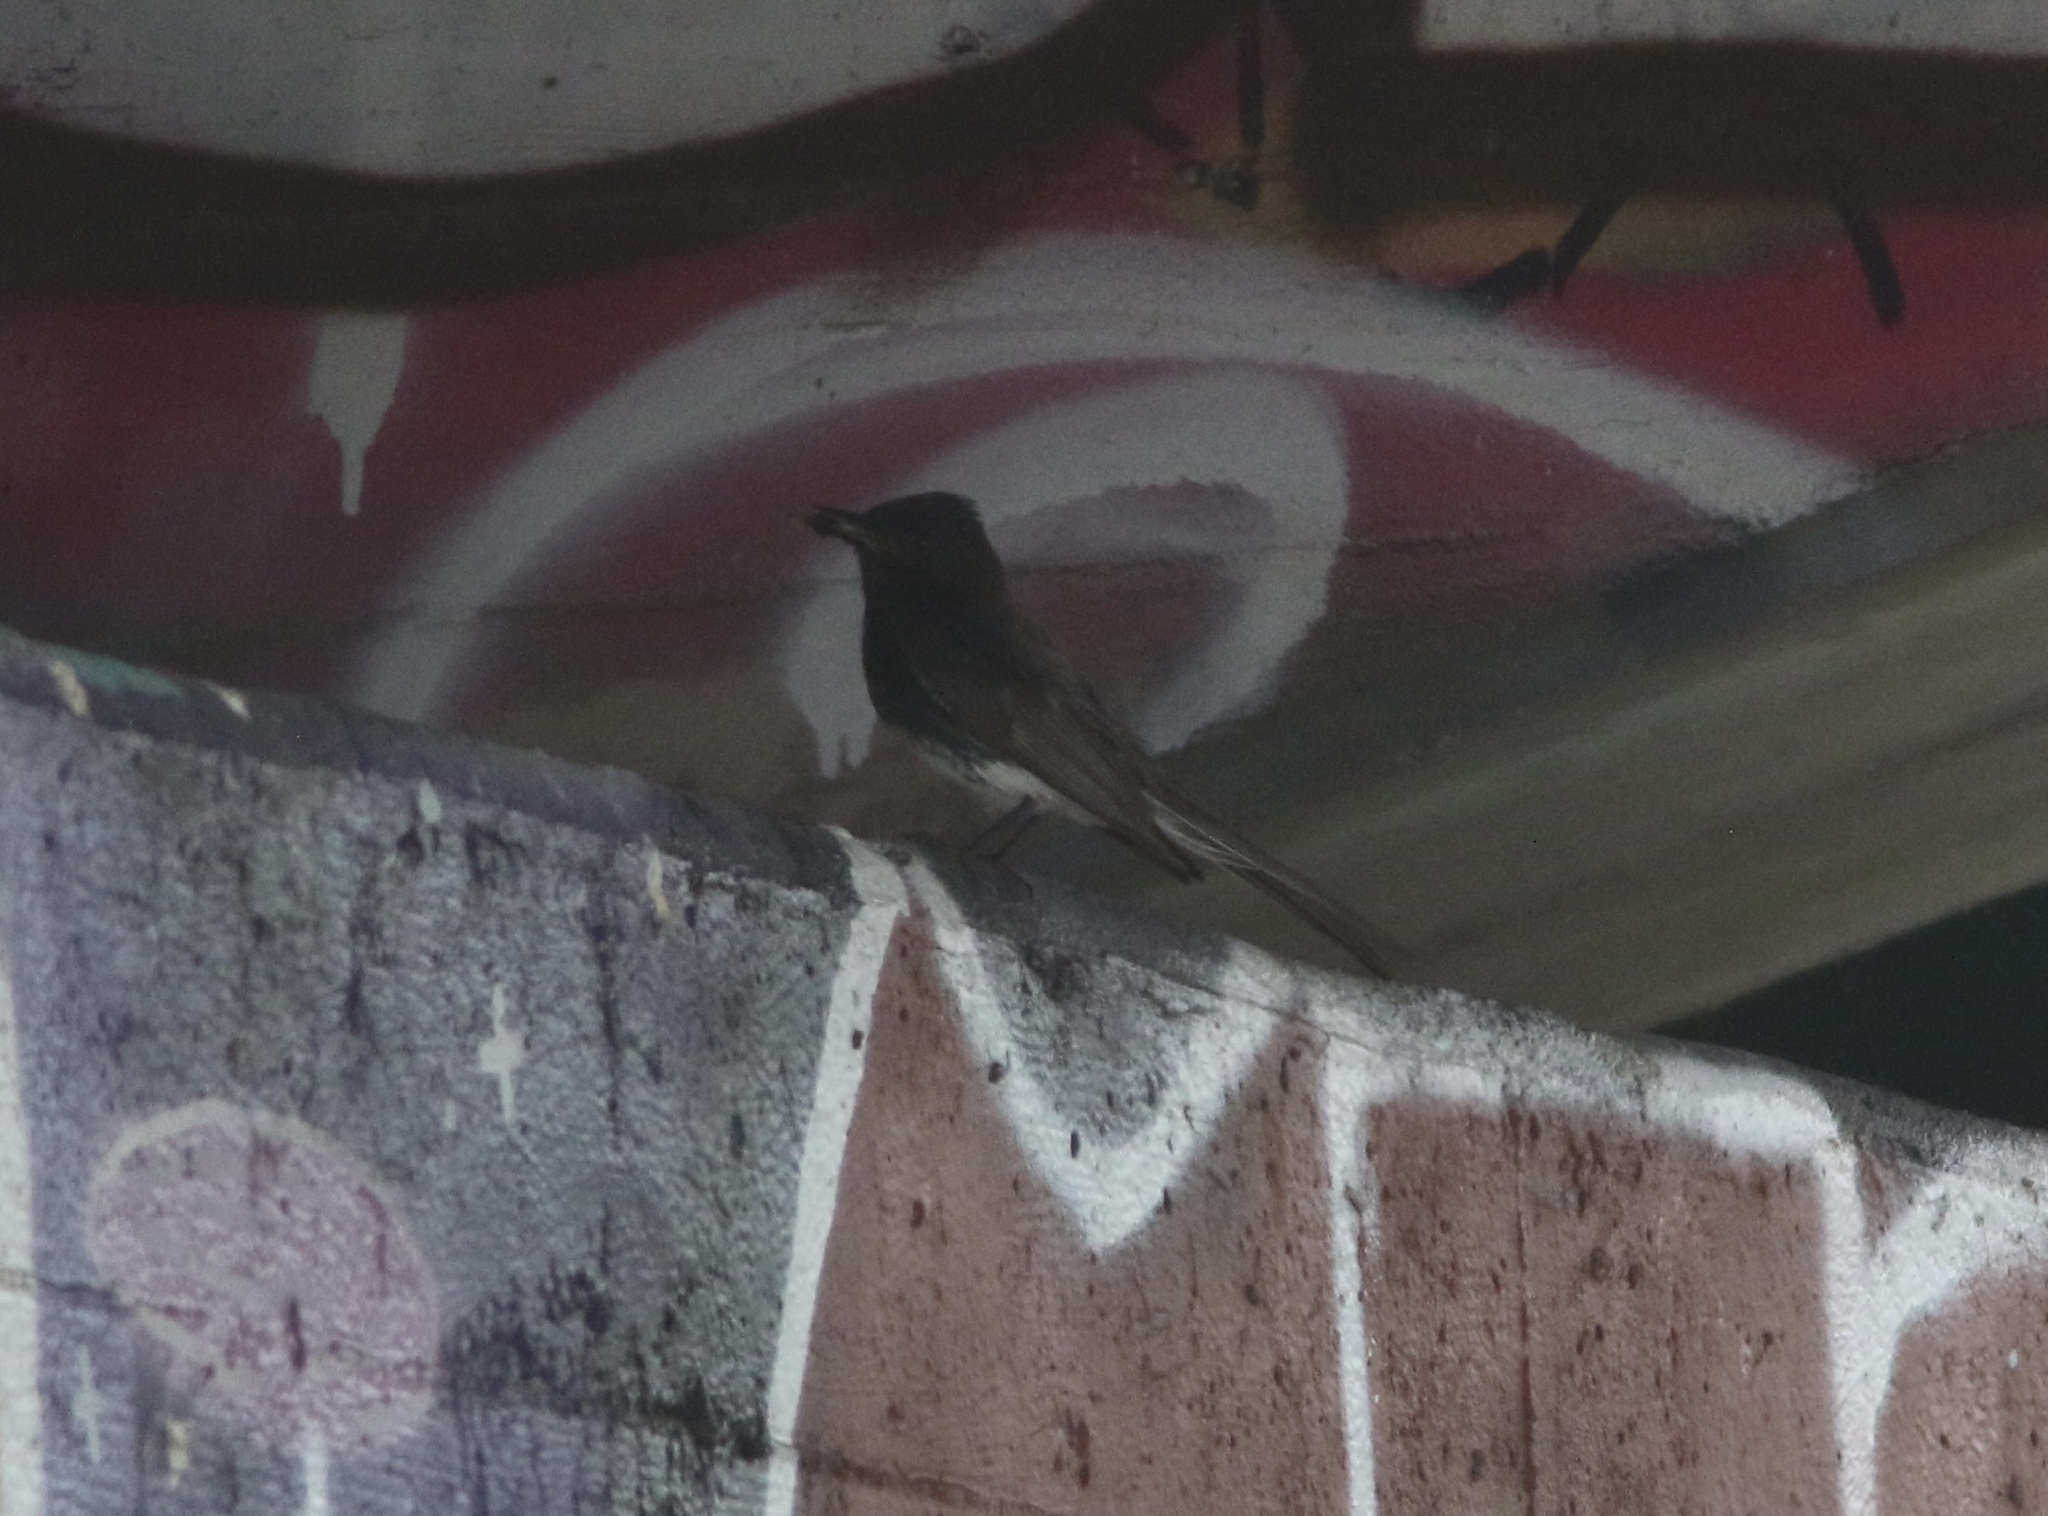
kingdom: Animalia
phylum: Chordata
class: Aves
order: Passeriformes
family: Tyrannidae
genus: Sayornis
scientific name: Sayornis nigricans
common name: Black phoebe
